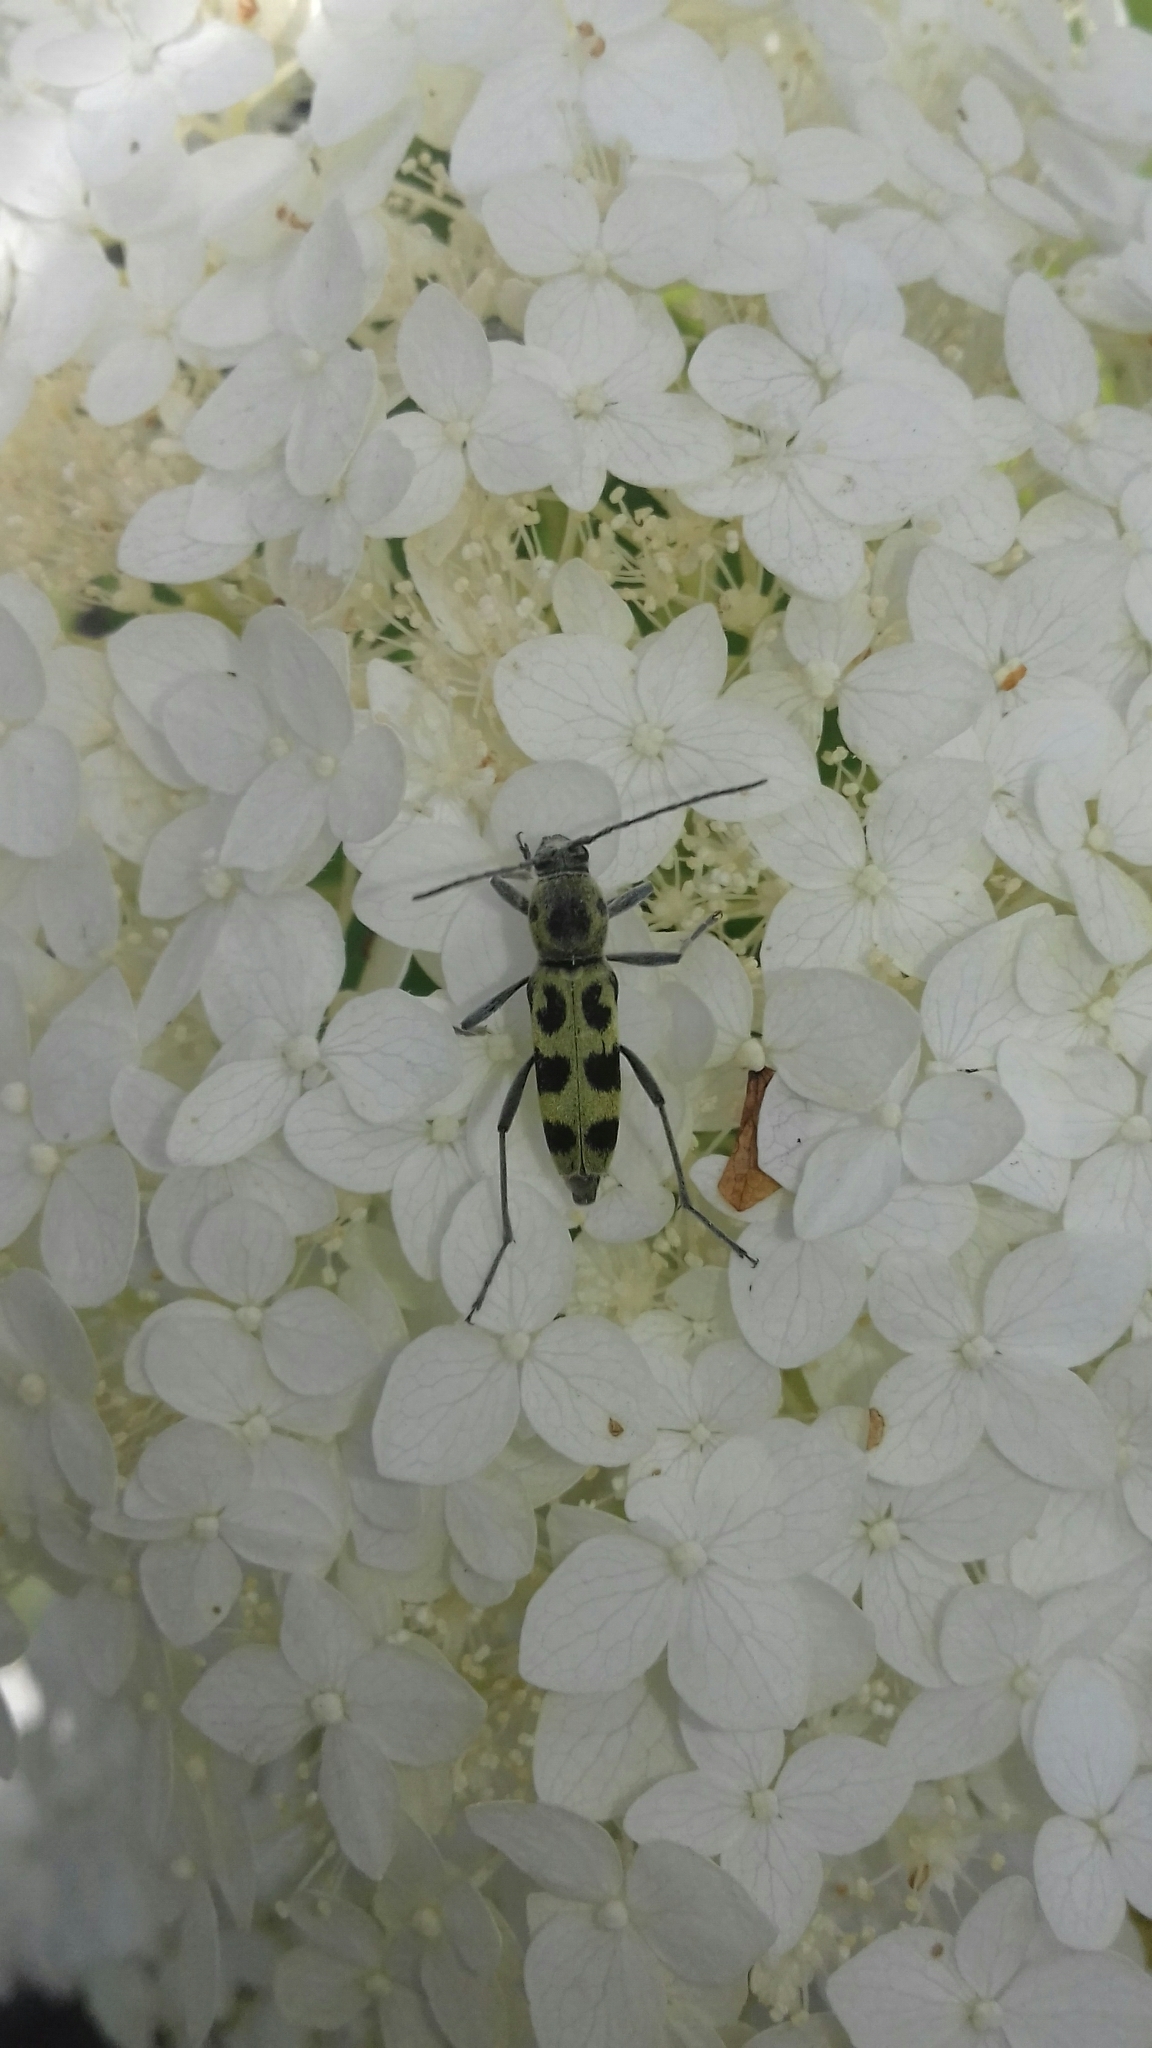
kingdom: Animalia
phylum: Arthropoda
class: Insecta
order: Coleoptera
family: Cerambycidae
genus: Chlorophorus
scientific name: Chlorophorus herbstii
